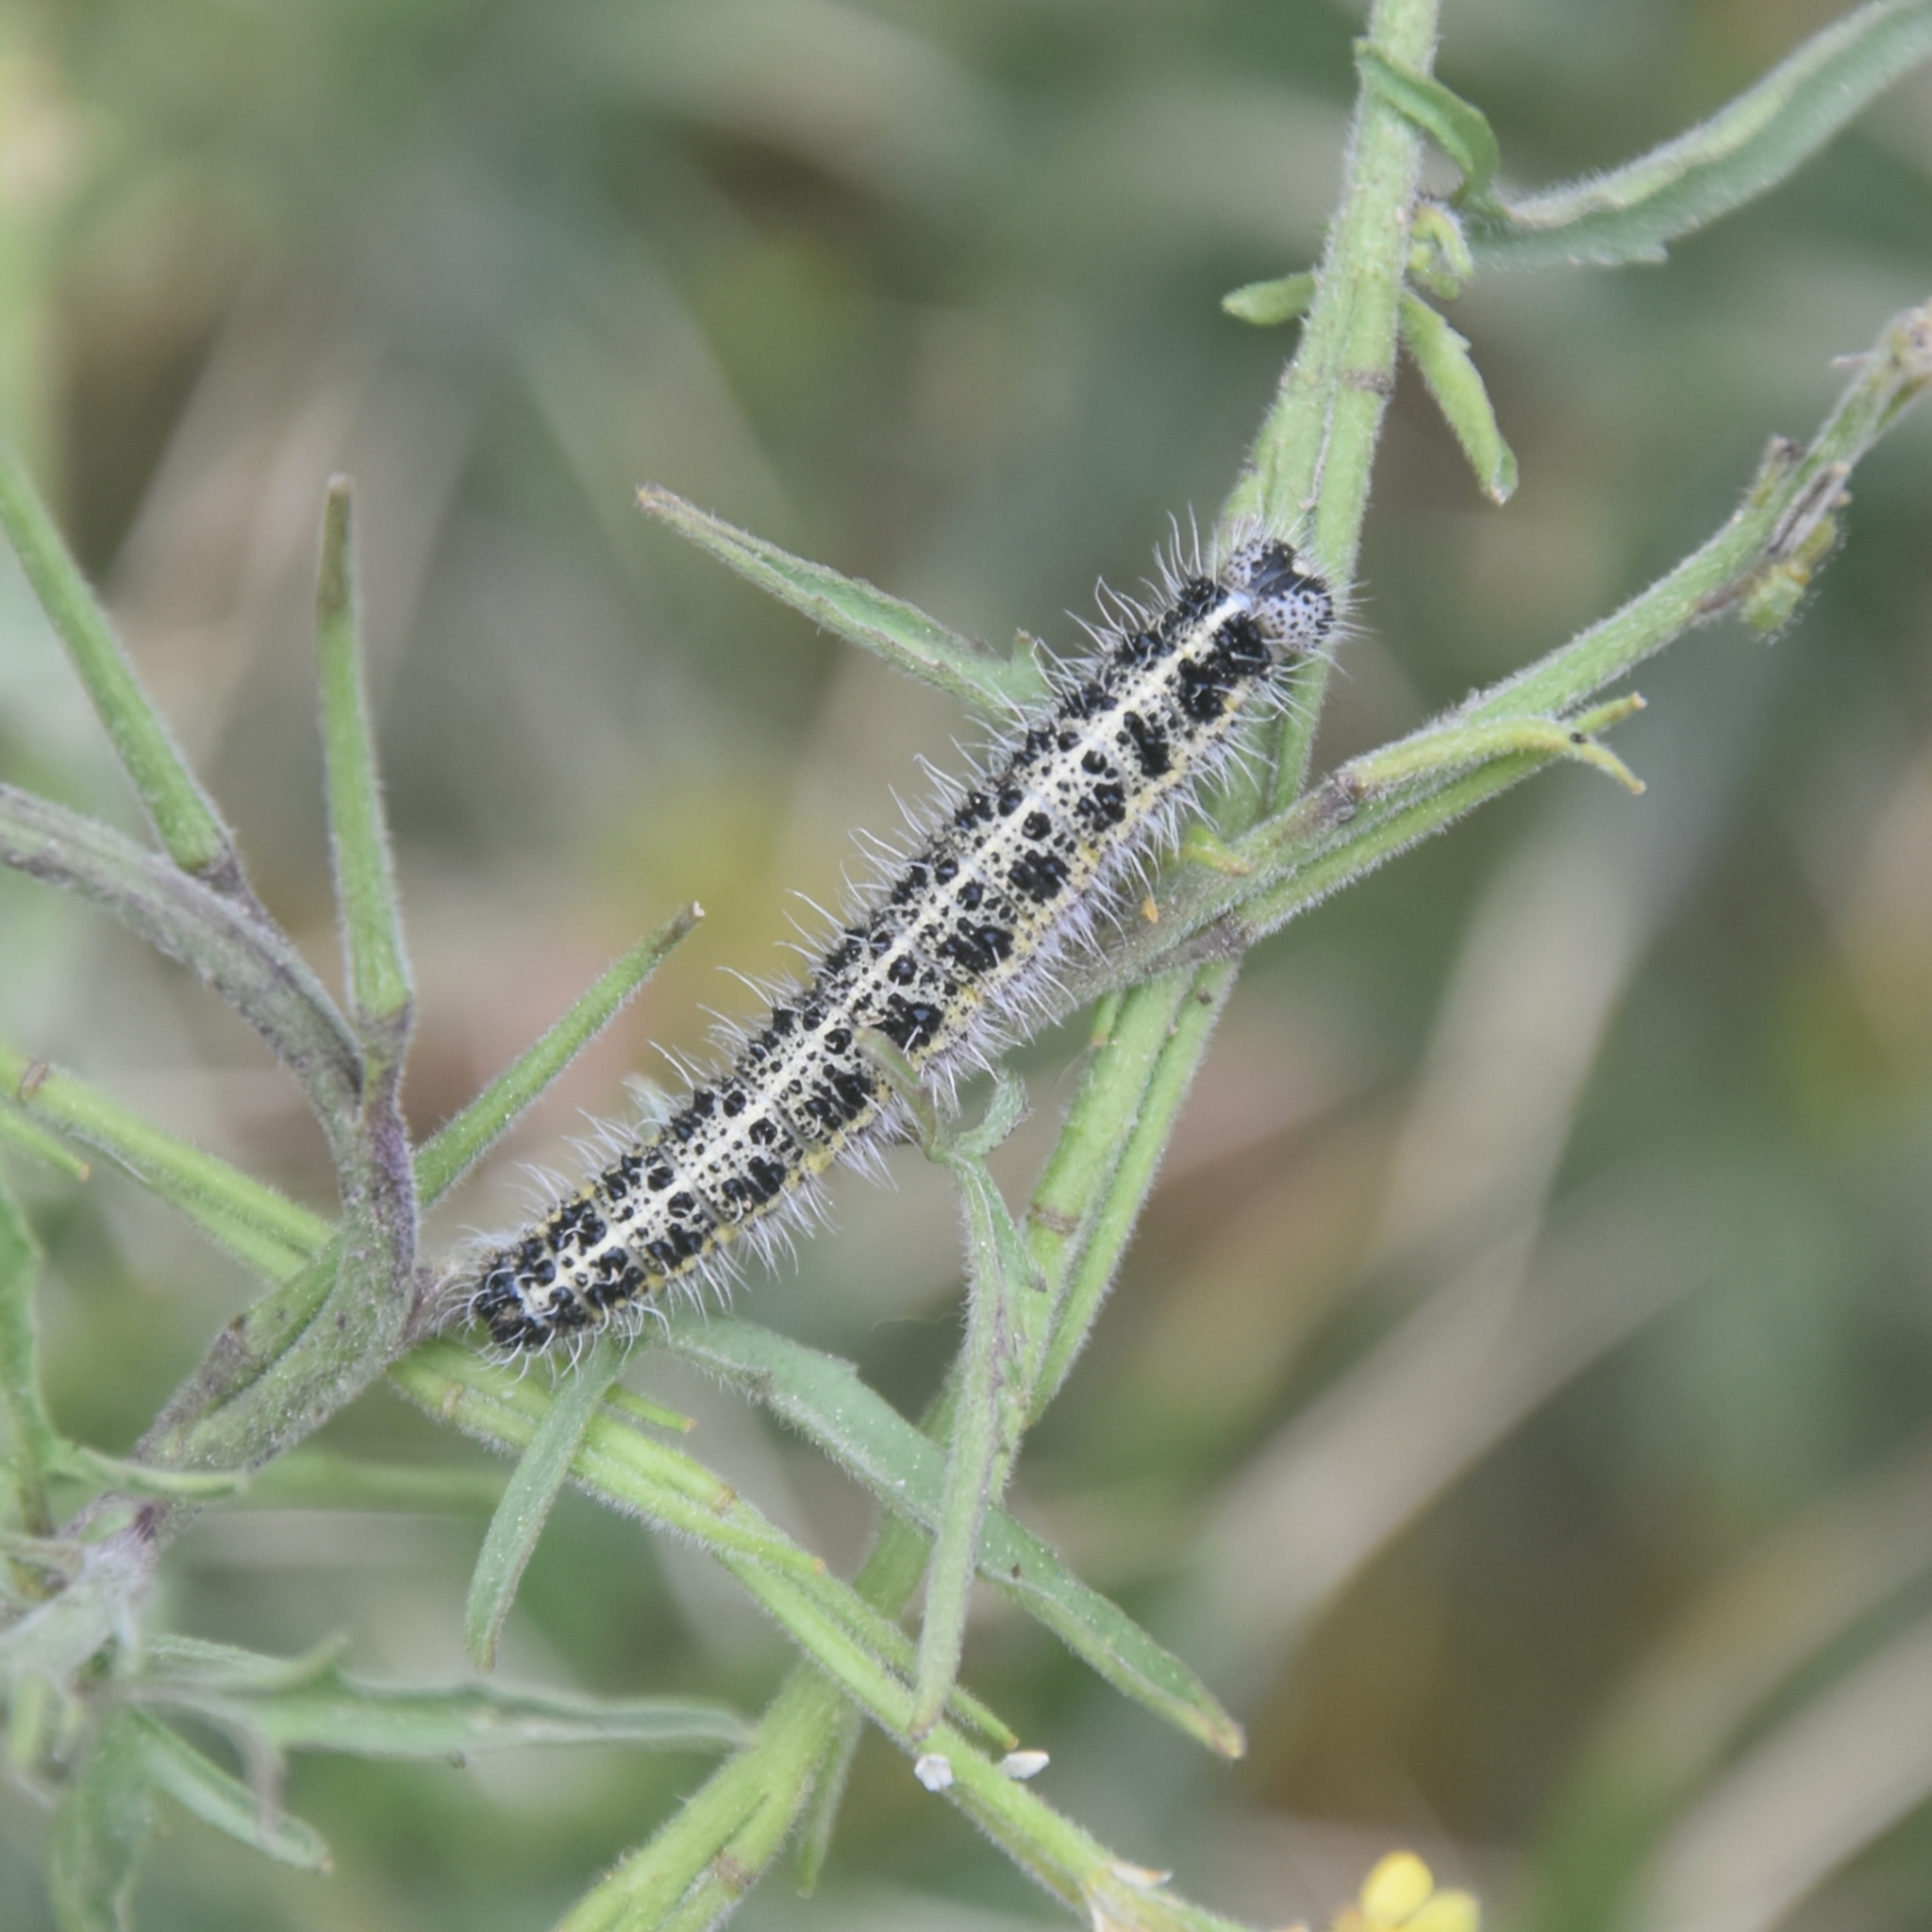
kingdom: Animalia
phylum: Arthropoda
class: Insecta
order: Lepidoptera
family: Pieridae
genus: Pieris
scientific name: Pieris brassicae
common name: Large white
